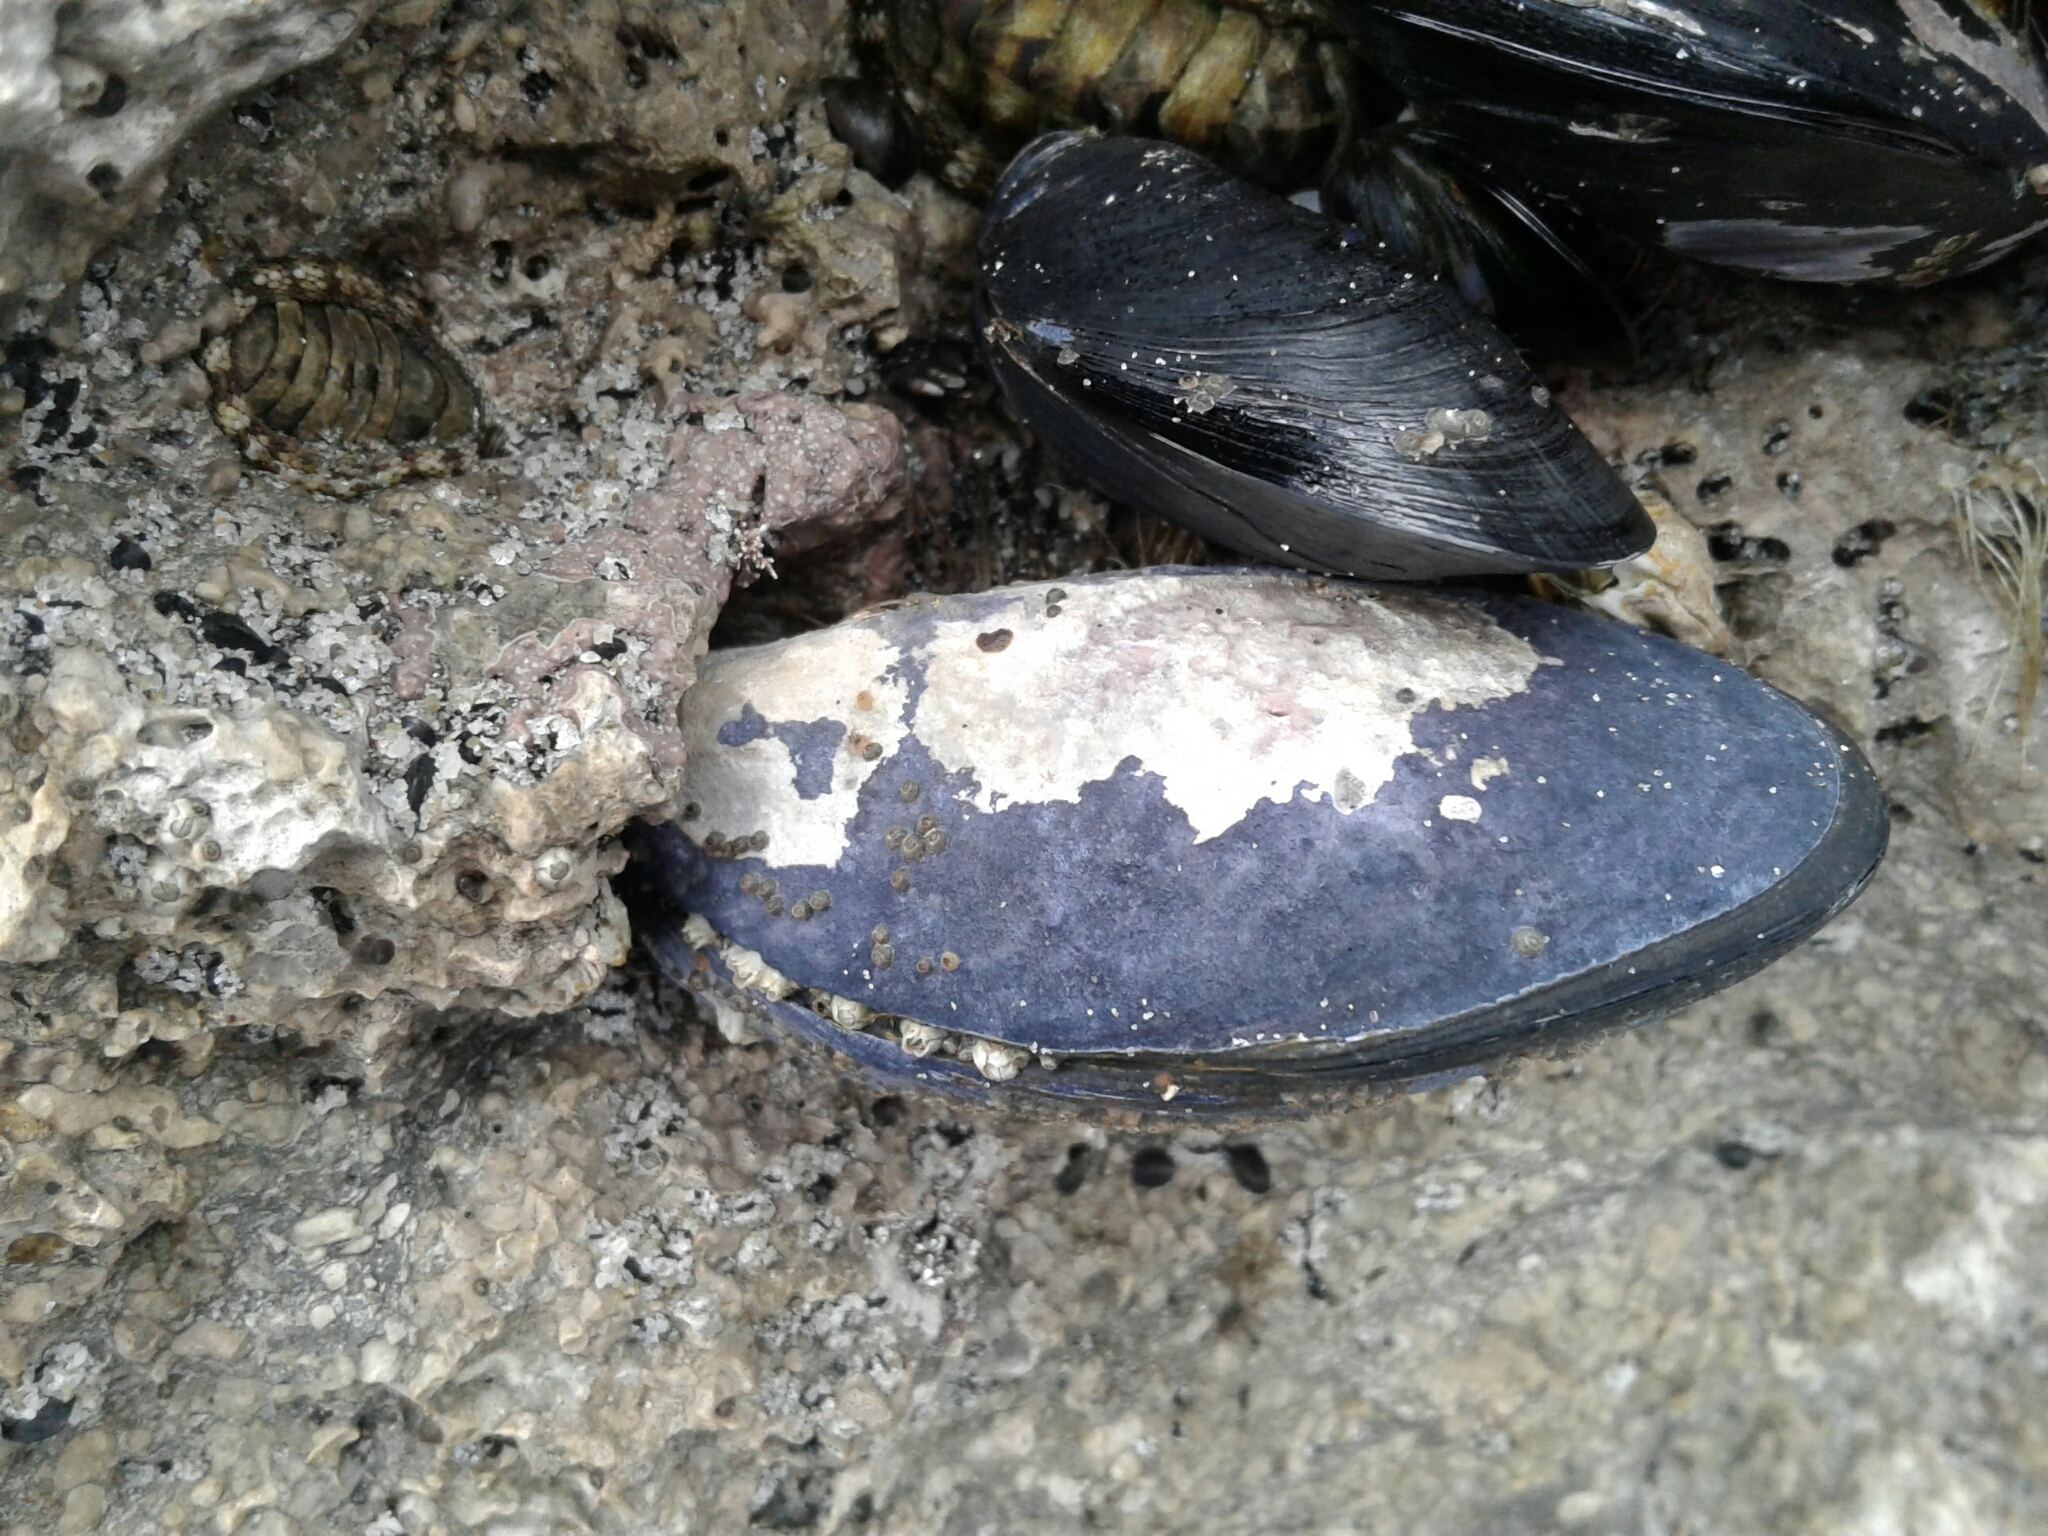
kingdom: Animalia
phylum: Mollusca
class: Bivalvia
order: Mytilida
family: Mytilidae
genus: Mytilus
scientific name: Mytilus
